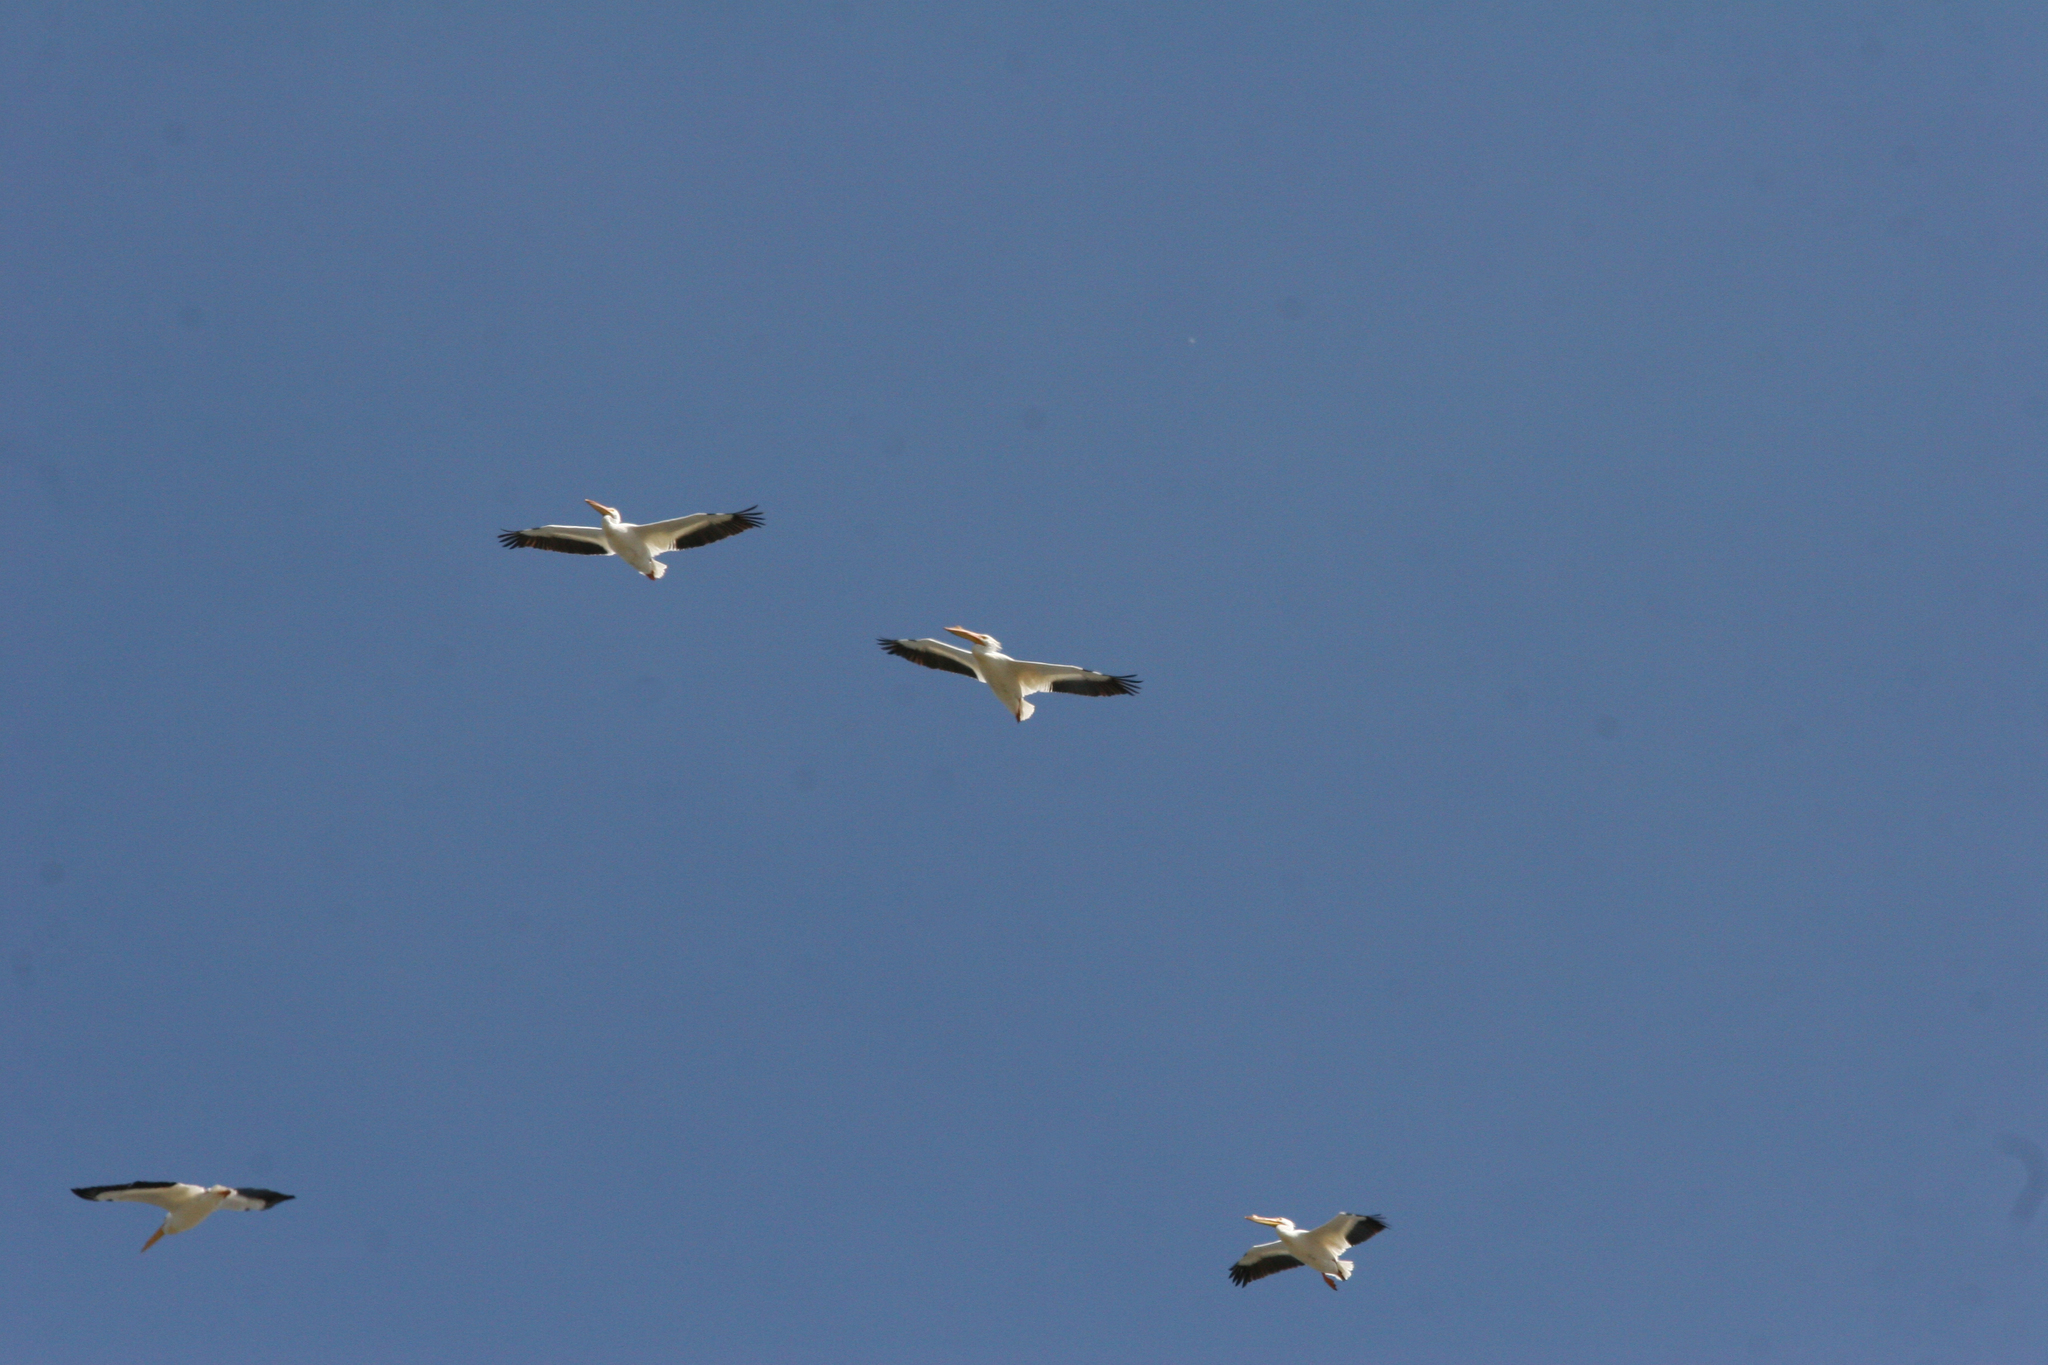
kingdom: Animalia
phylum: Chordata
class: Aves
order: Pelecaniformes
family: Pelecanidae
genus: Pelecanus
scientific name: Pelecanus erythrorhynchos
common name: American white pelican
